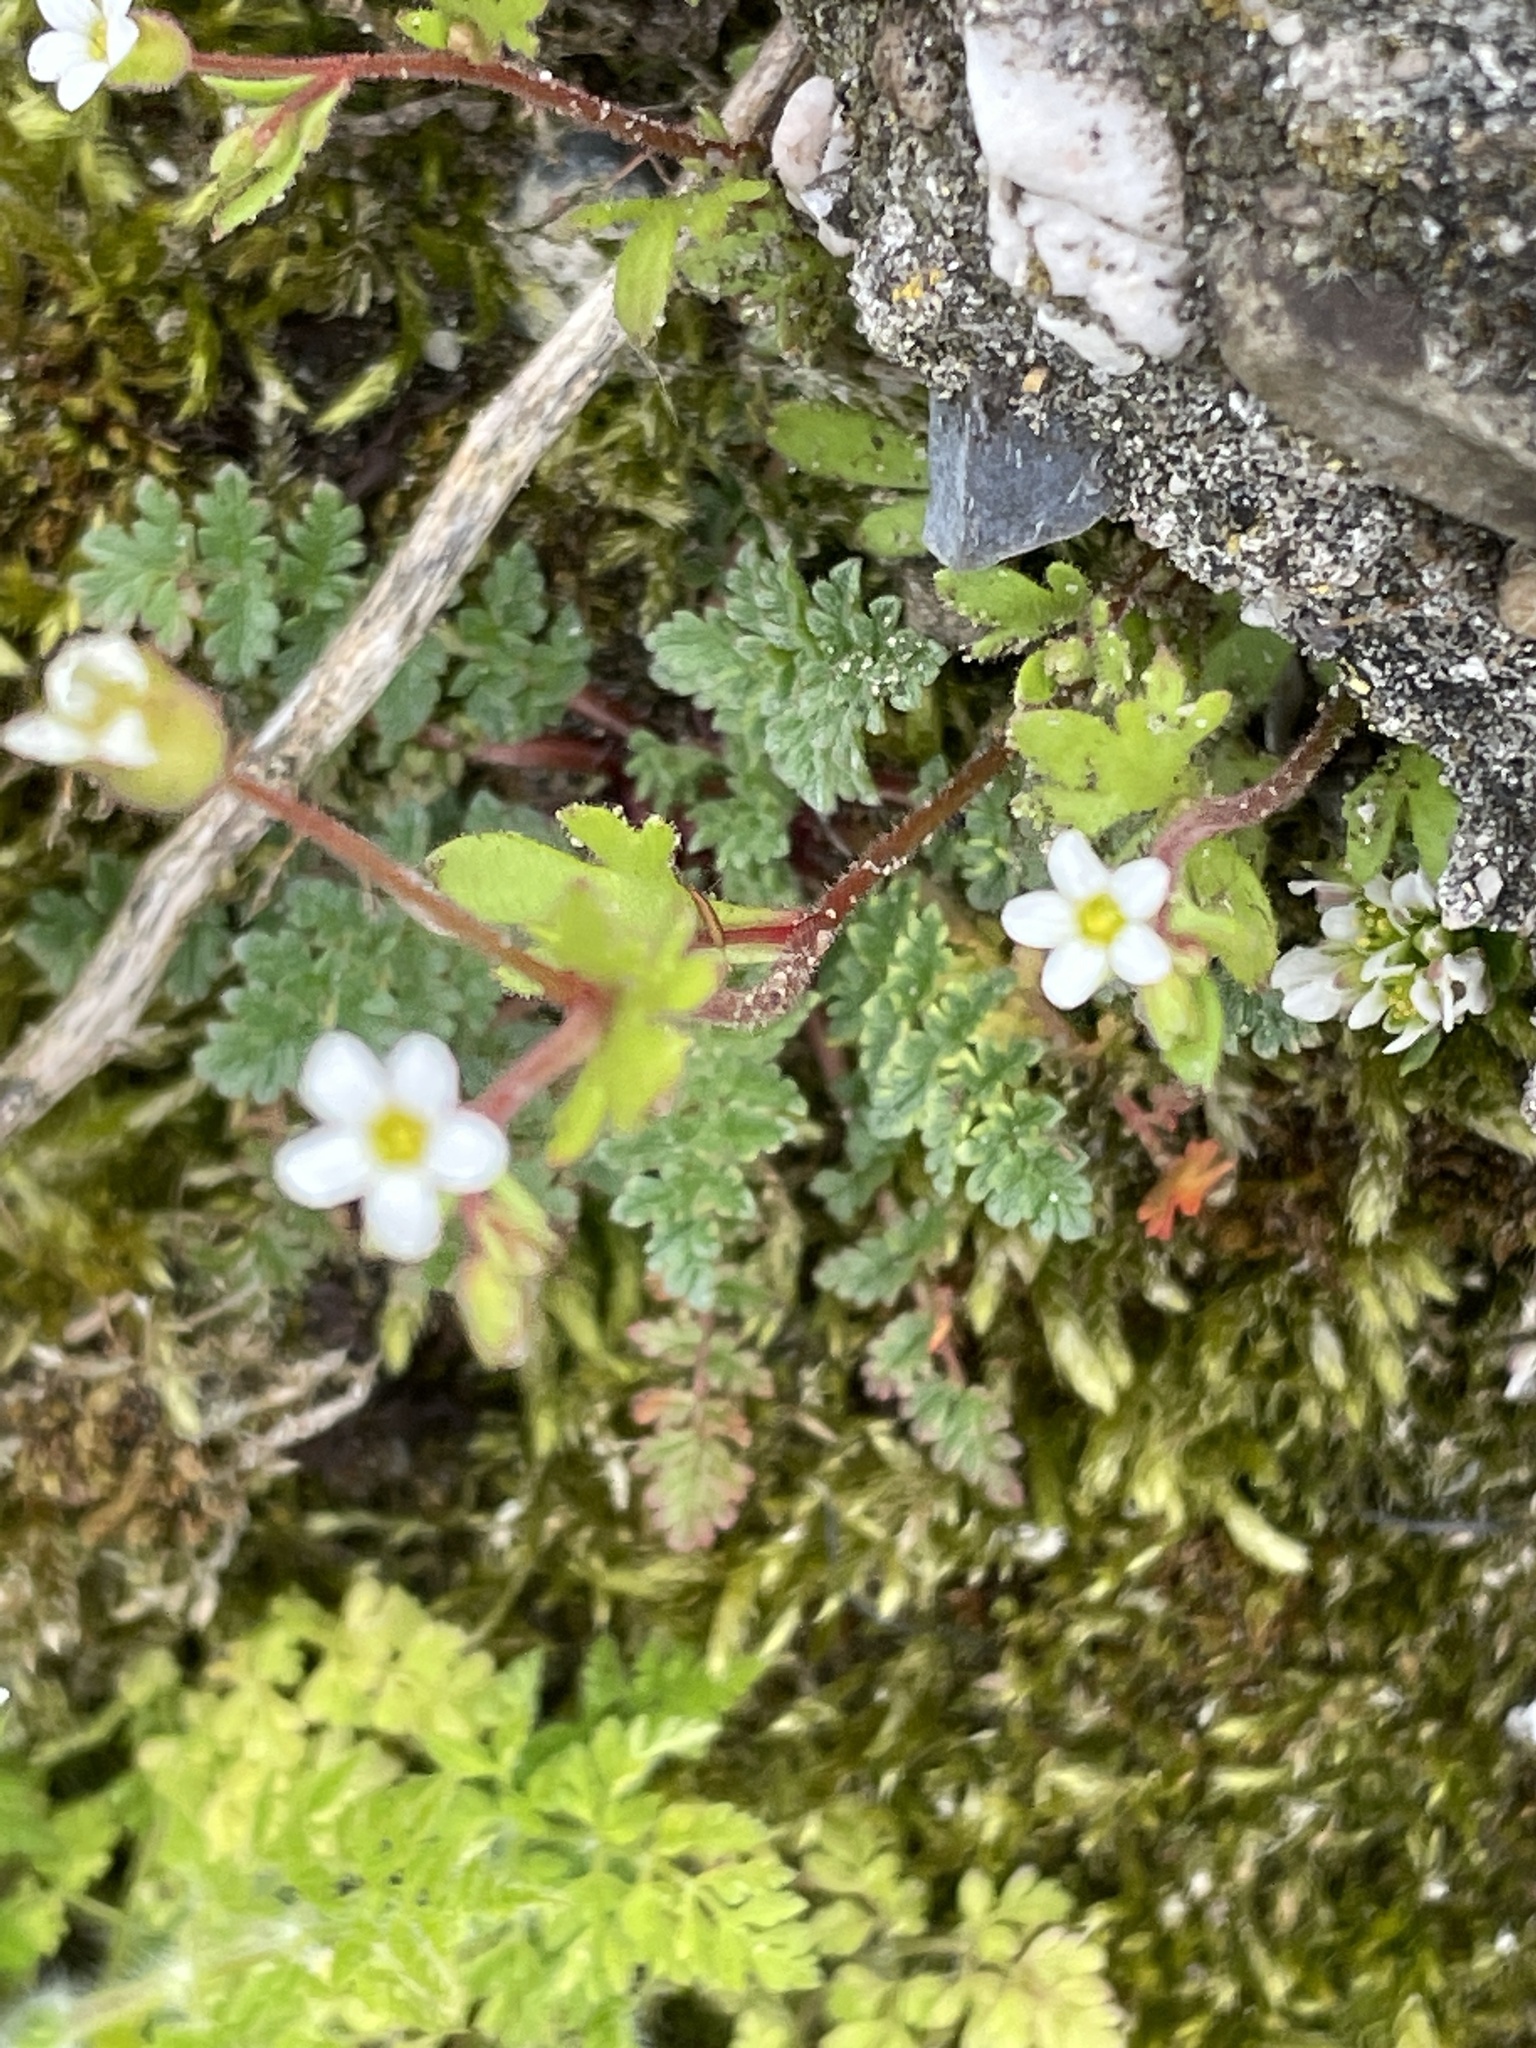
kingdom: Plantae
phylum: Tracheophyta
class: Magnoliopsida
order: Saxifragales
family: Saxifragaceae
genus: Saxifraga
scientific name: Saxifraga tridactylites
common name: Rue-leaved saxifrage
